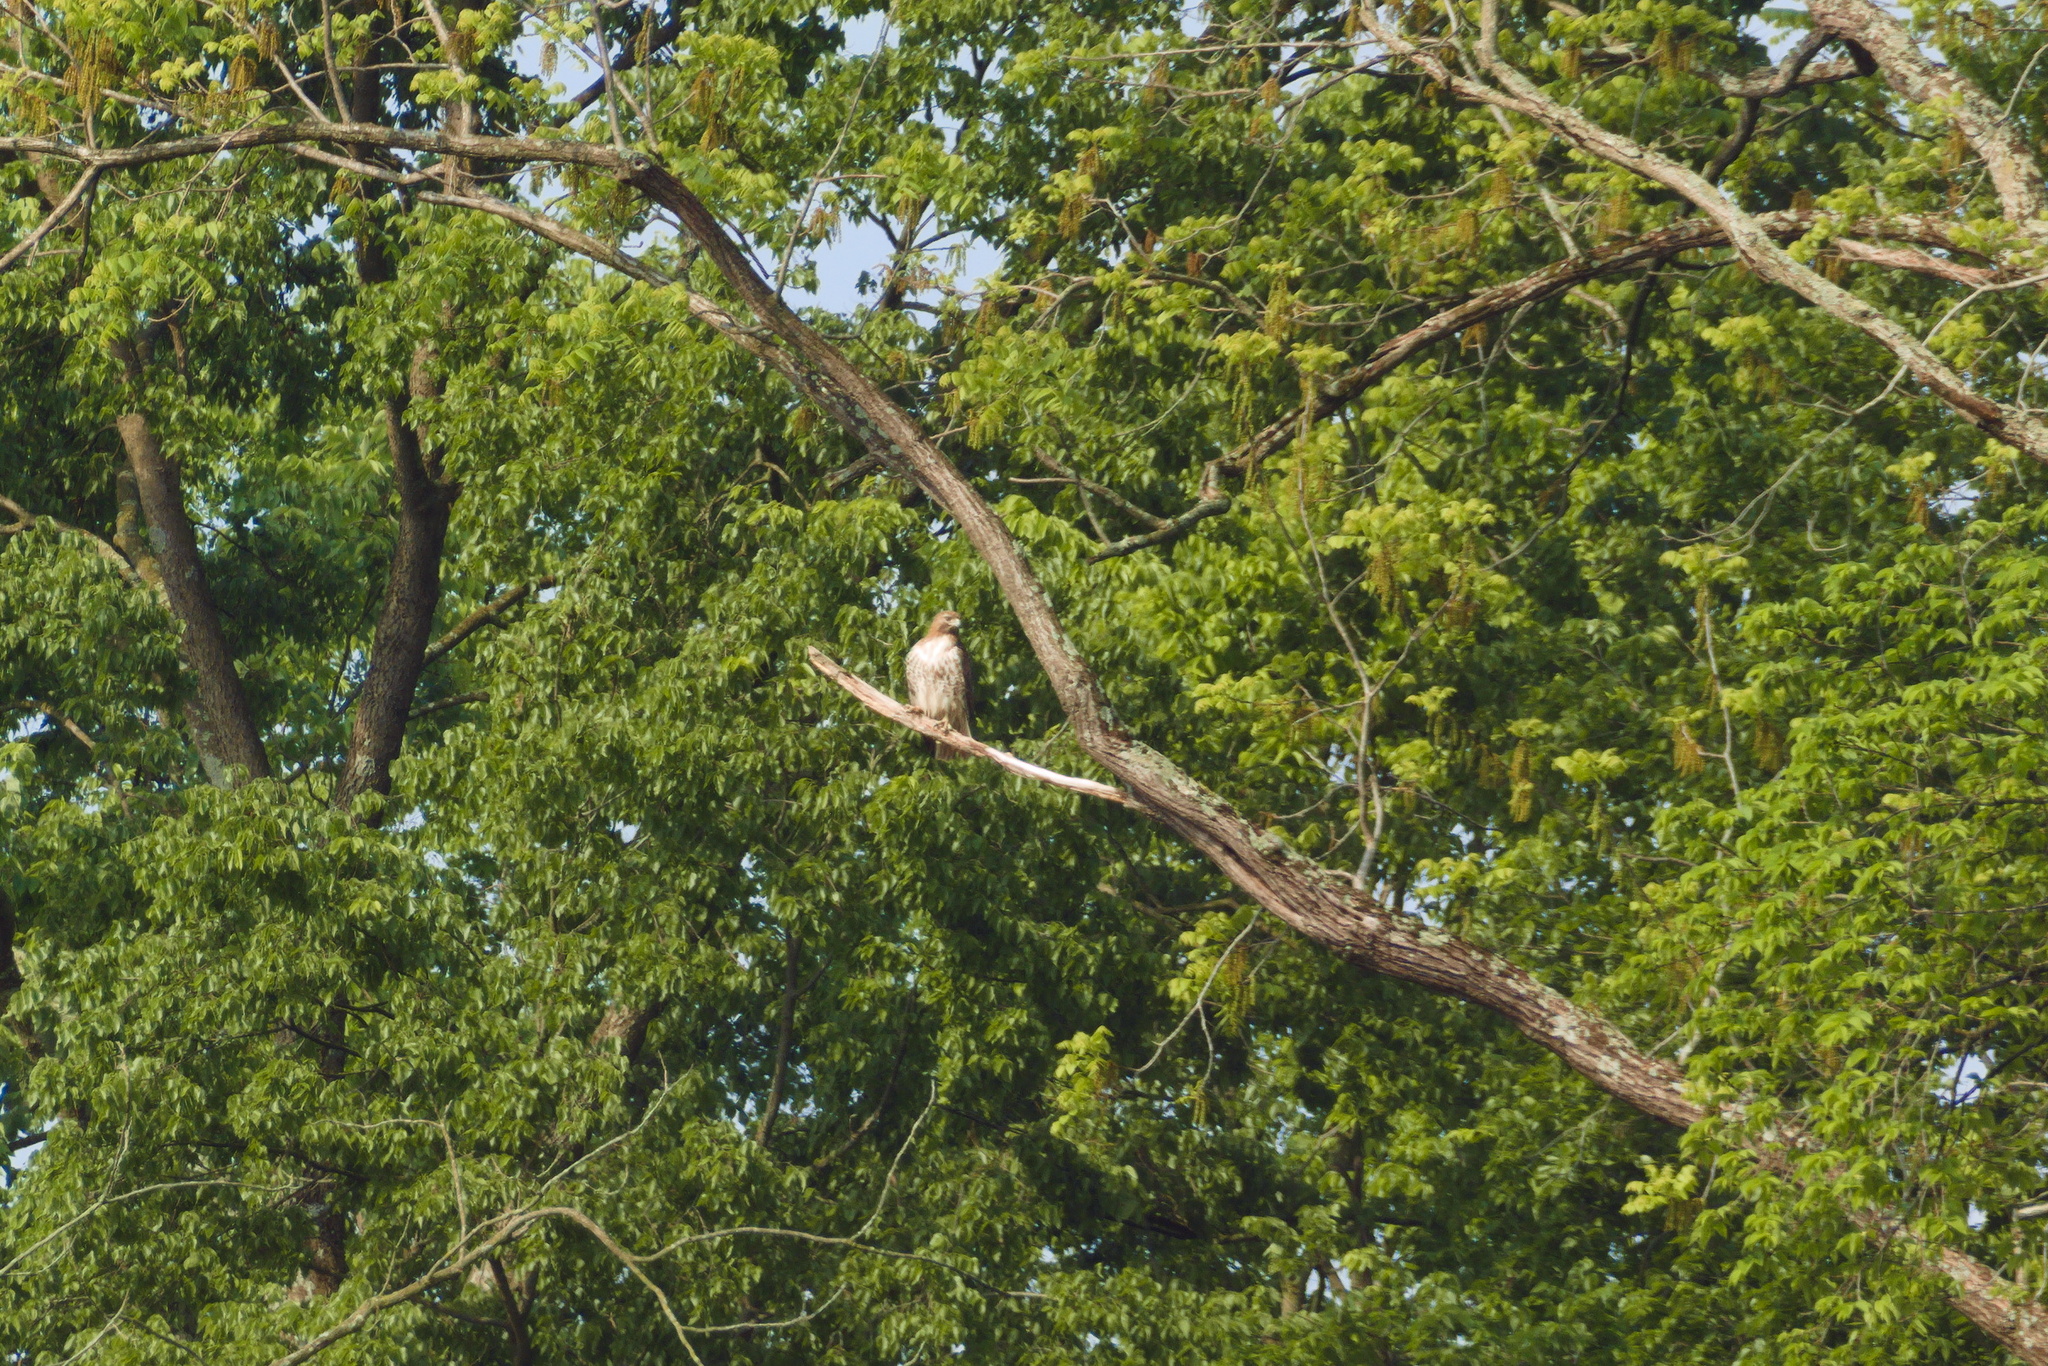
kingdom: Animalia
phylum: Chordata
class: Aves
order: Accipitriformes
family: Accipitridae
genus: Buteo
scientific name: Buteo jamaicensis
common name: Red-tailed hawk
